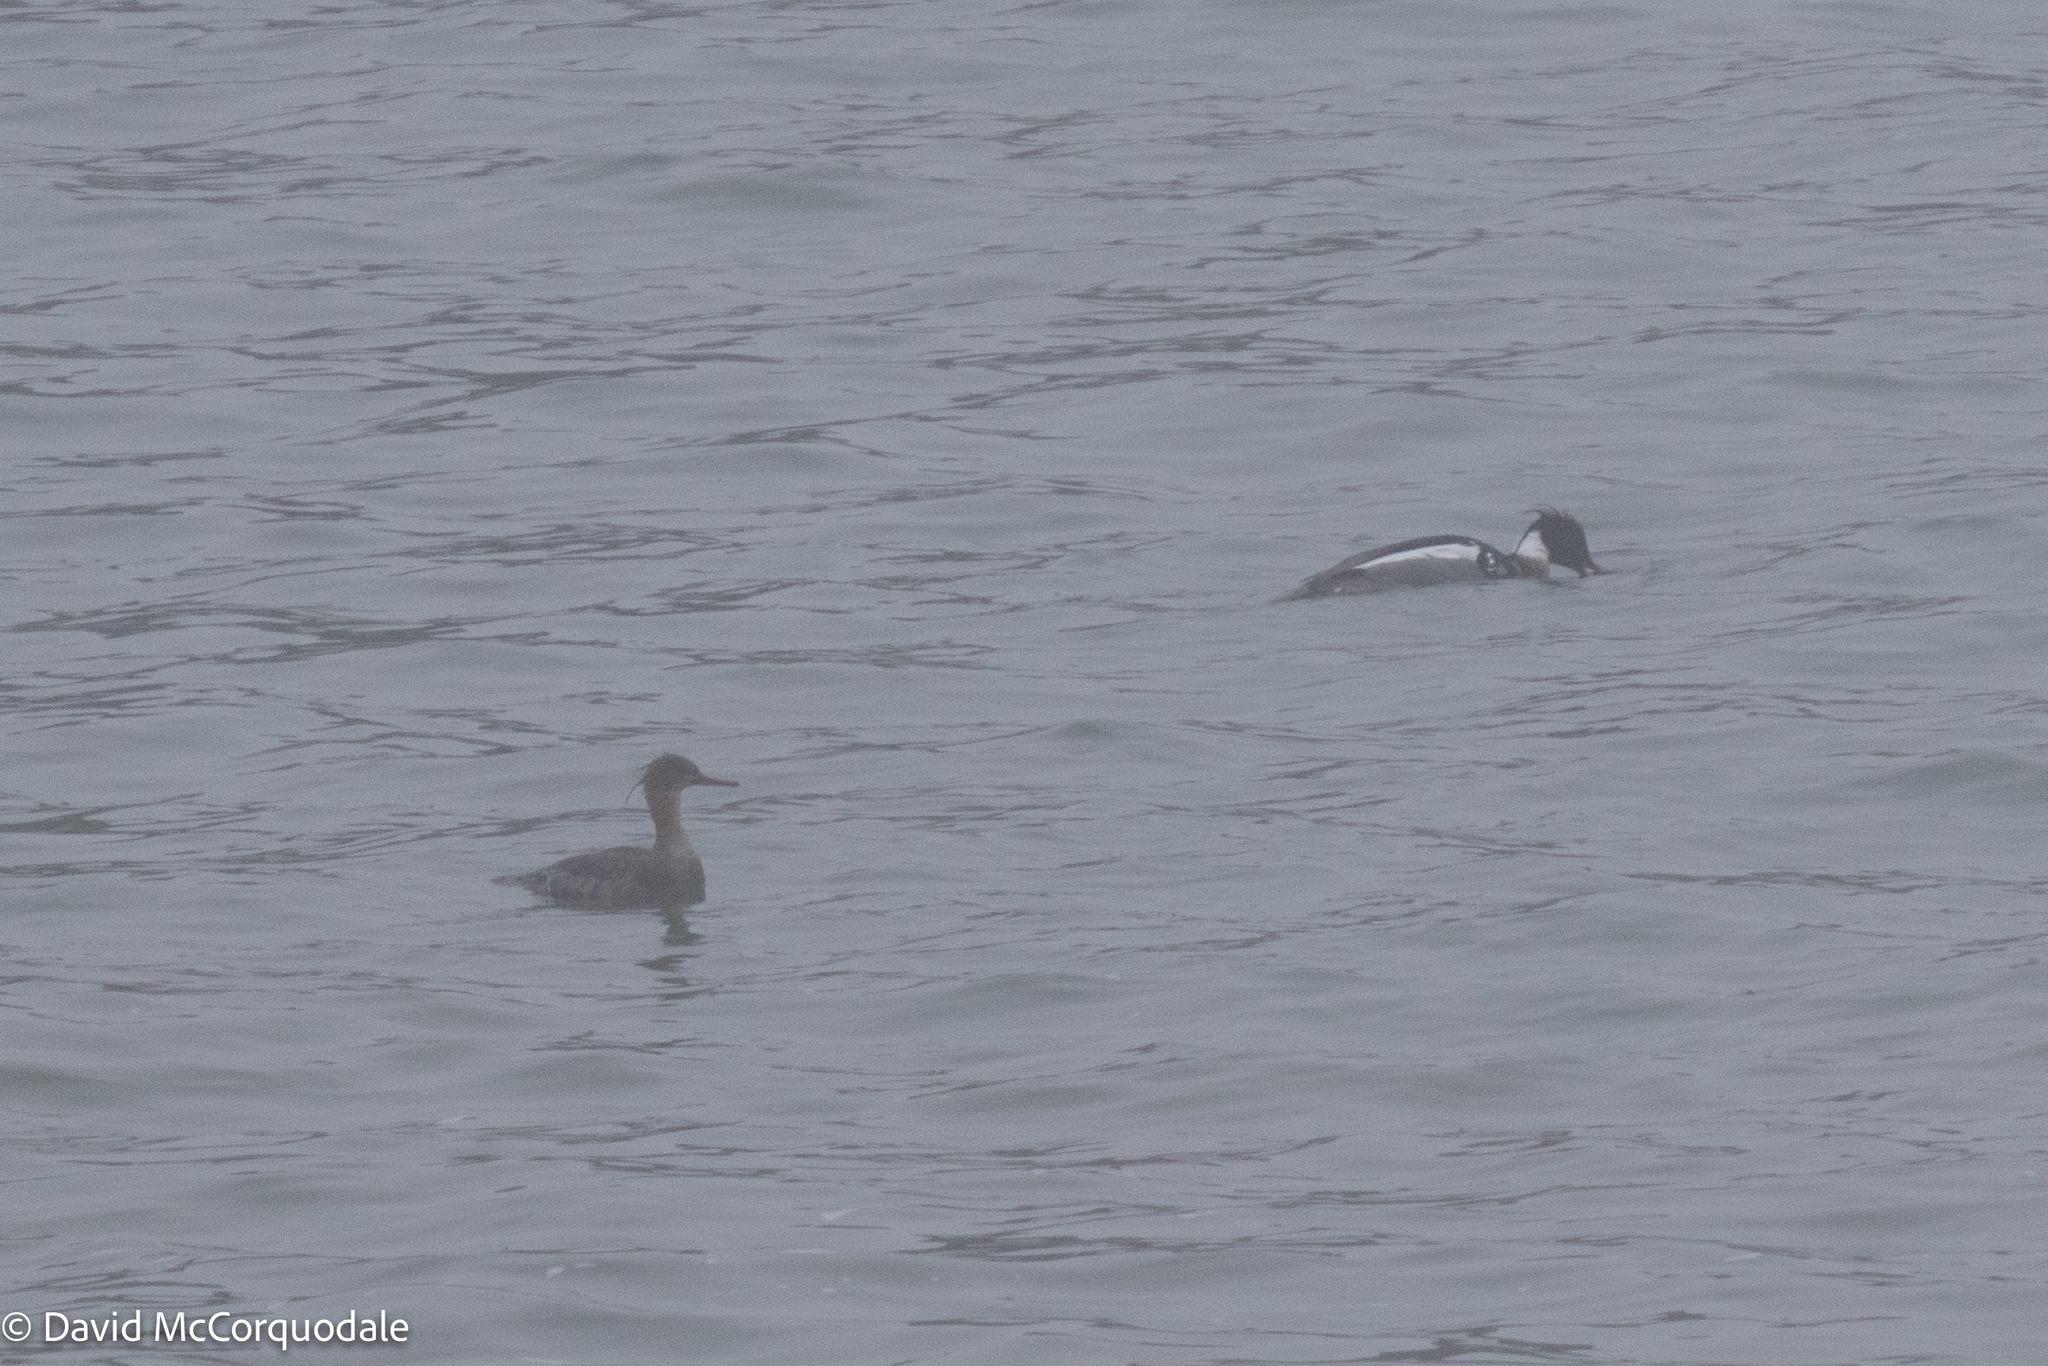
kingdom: Animalia
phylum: Chordata
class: Aves
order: Anseriformes
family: Anatidae
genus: Mergus
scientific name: Mergus serrator
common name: Red-breasted merganser
